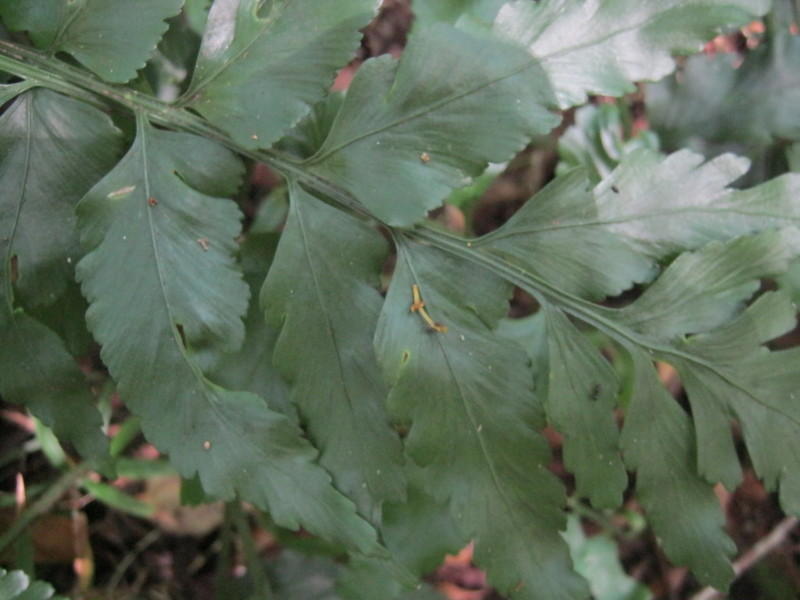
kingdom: Plantae
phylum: Tracheophyta
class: Polypodiopsida
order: Polypodiales
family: Aspleniaceae
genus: Asplenium
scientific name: Asplenium flexuosum
